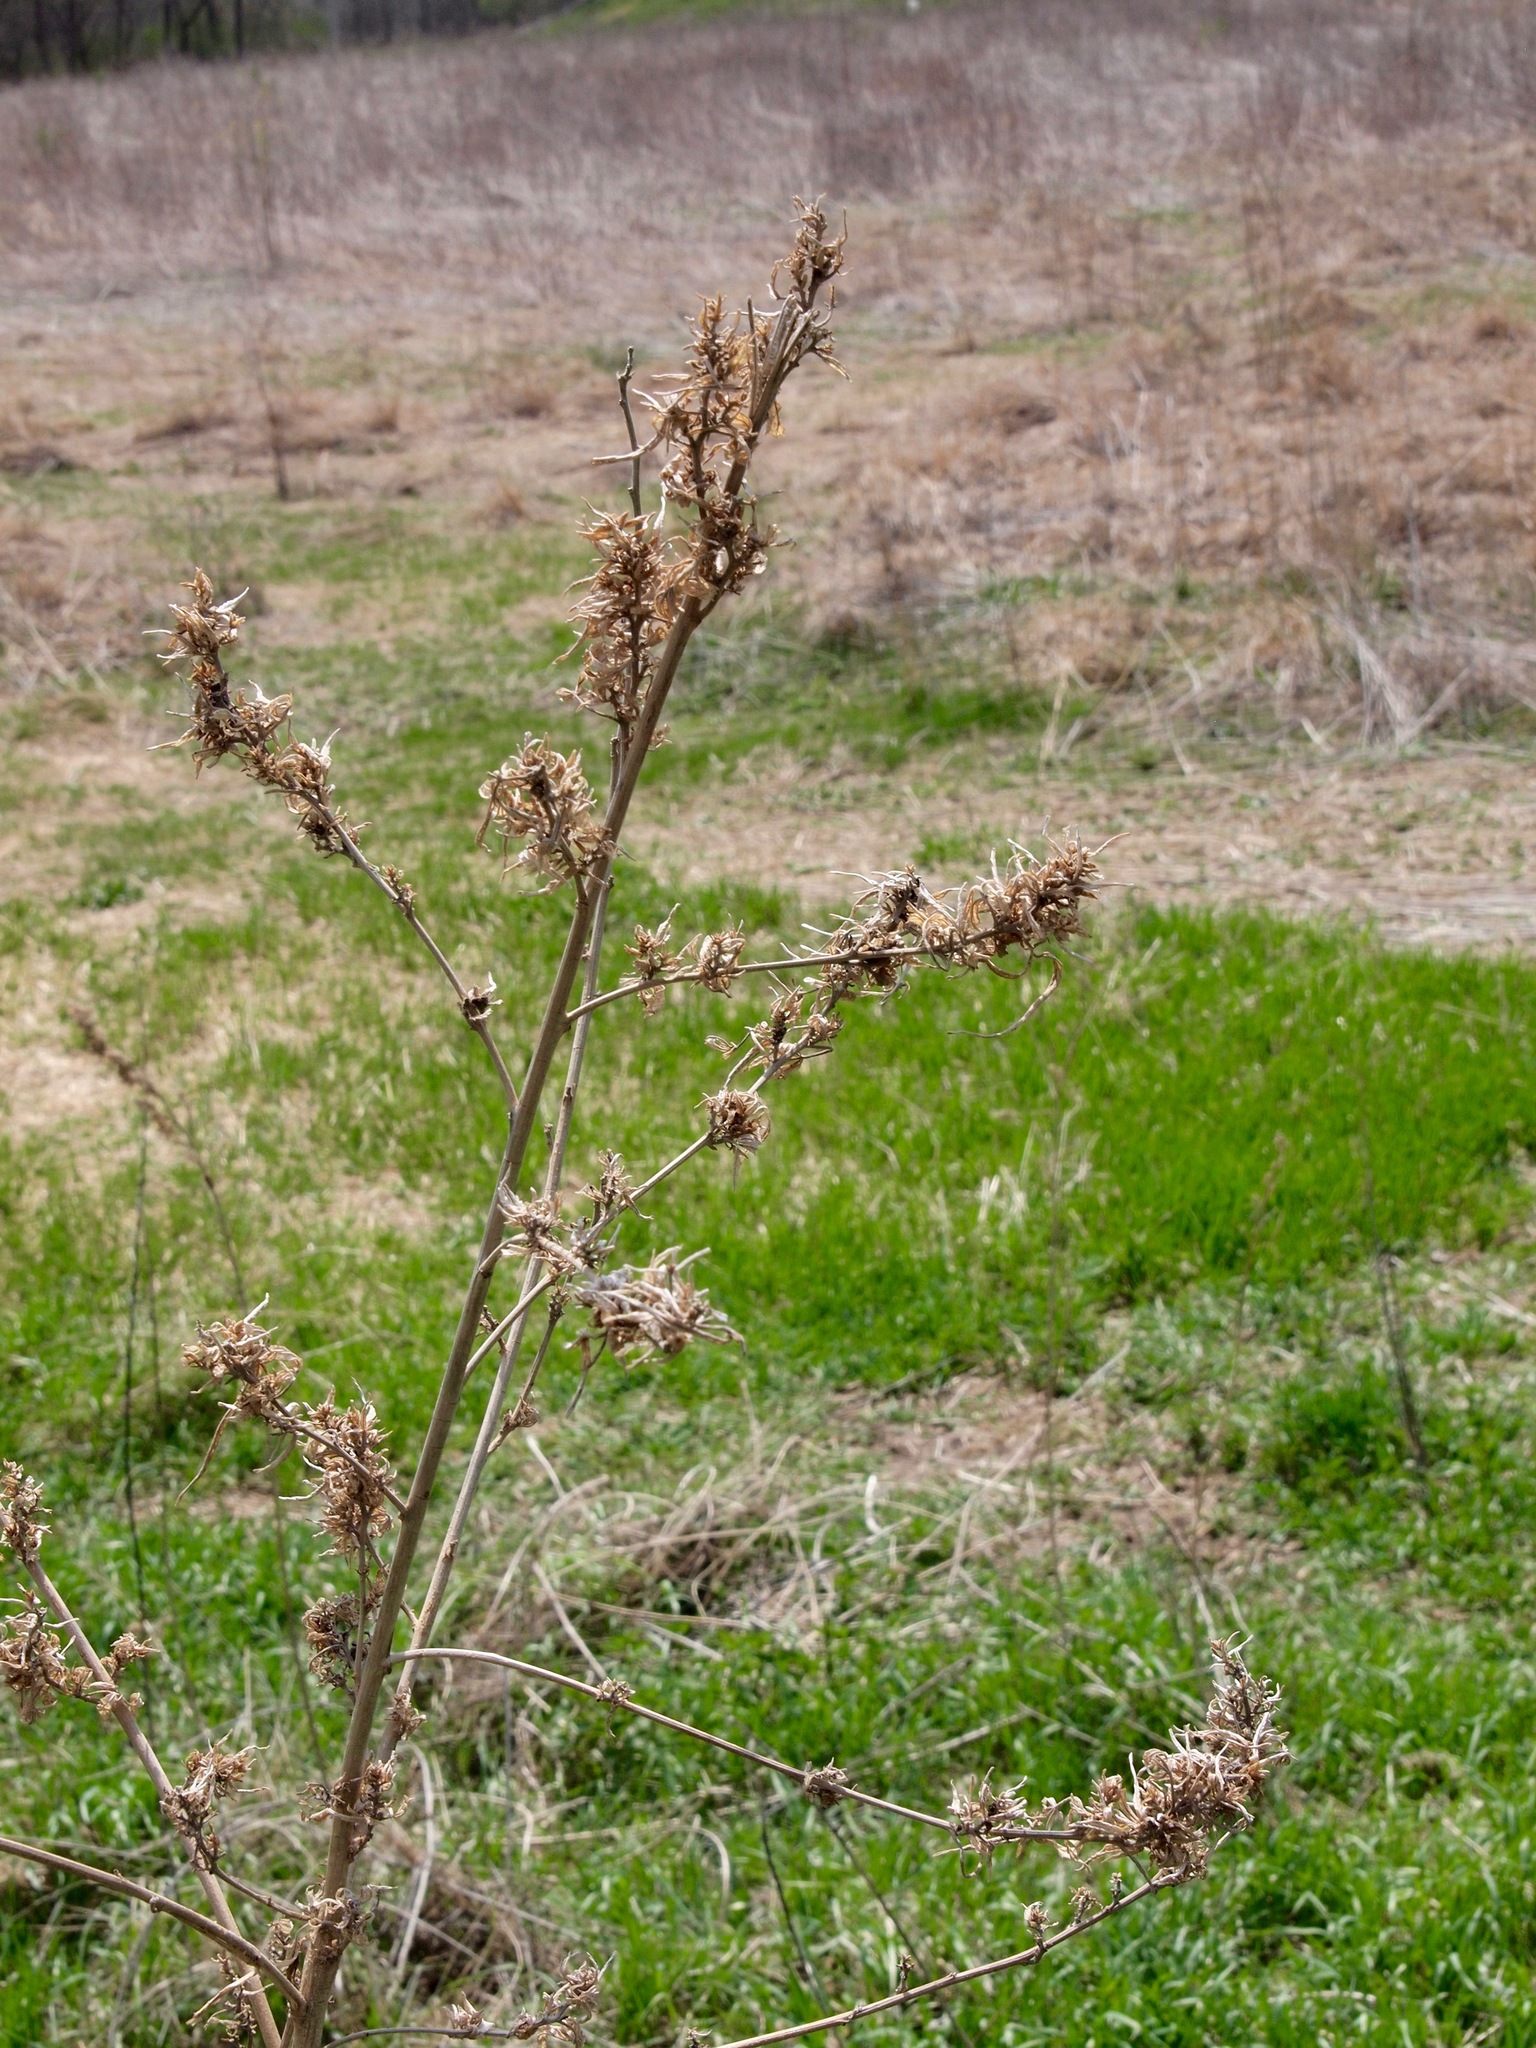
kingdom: Plantae
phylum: Tracheophyta
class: Magnoliopsida
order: Rosales
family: Cannabaceae
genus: Cannabis
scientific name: Cannabis sativa
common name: Hemp
